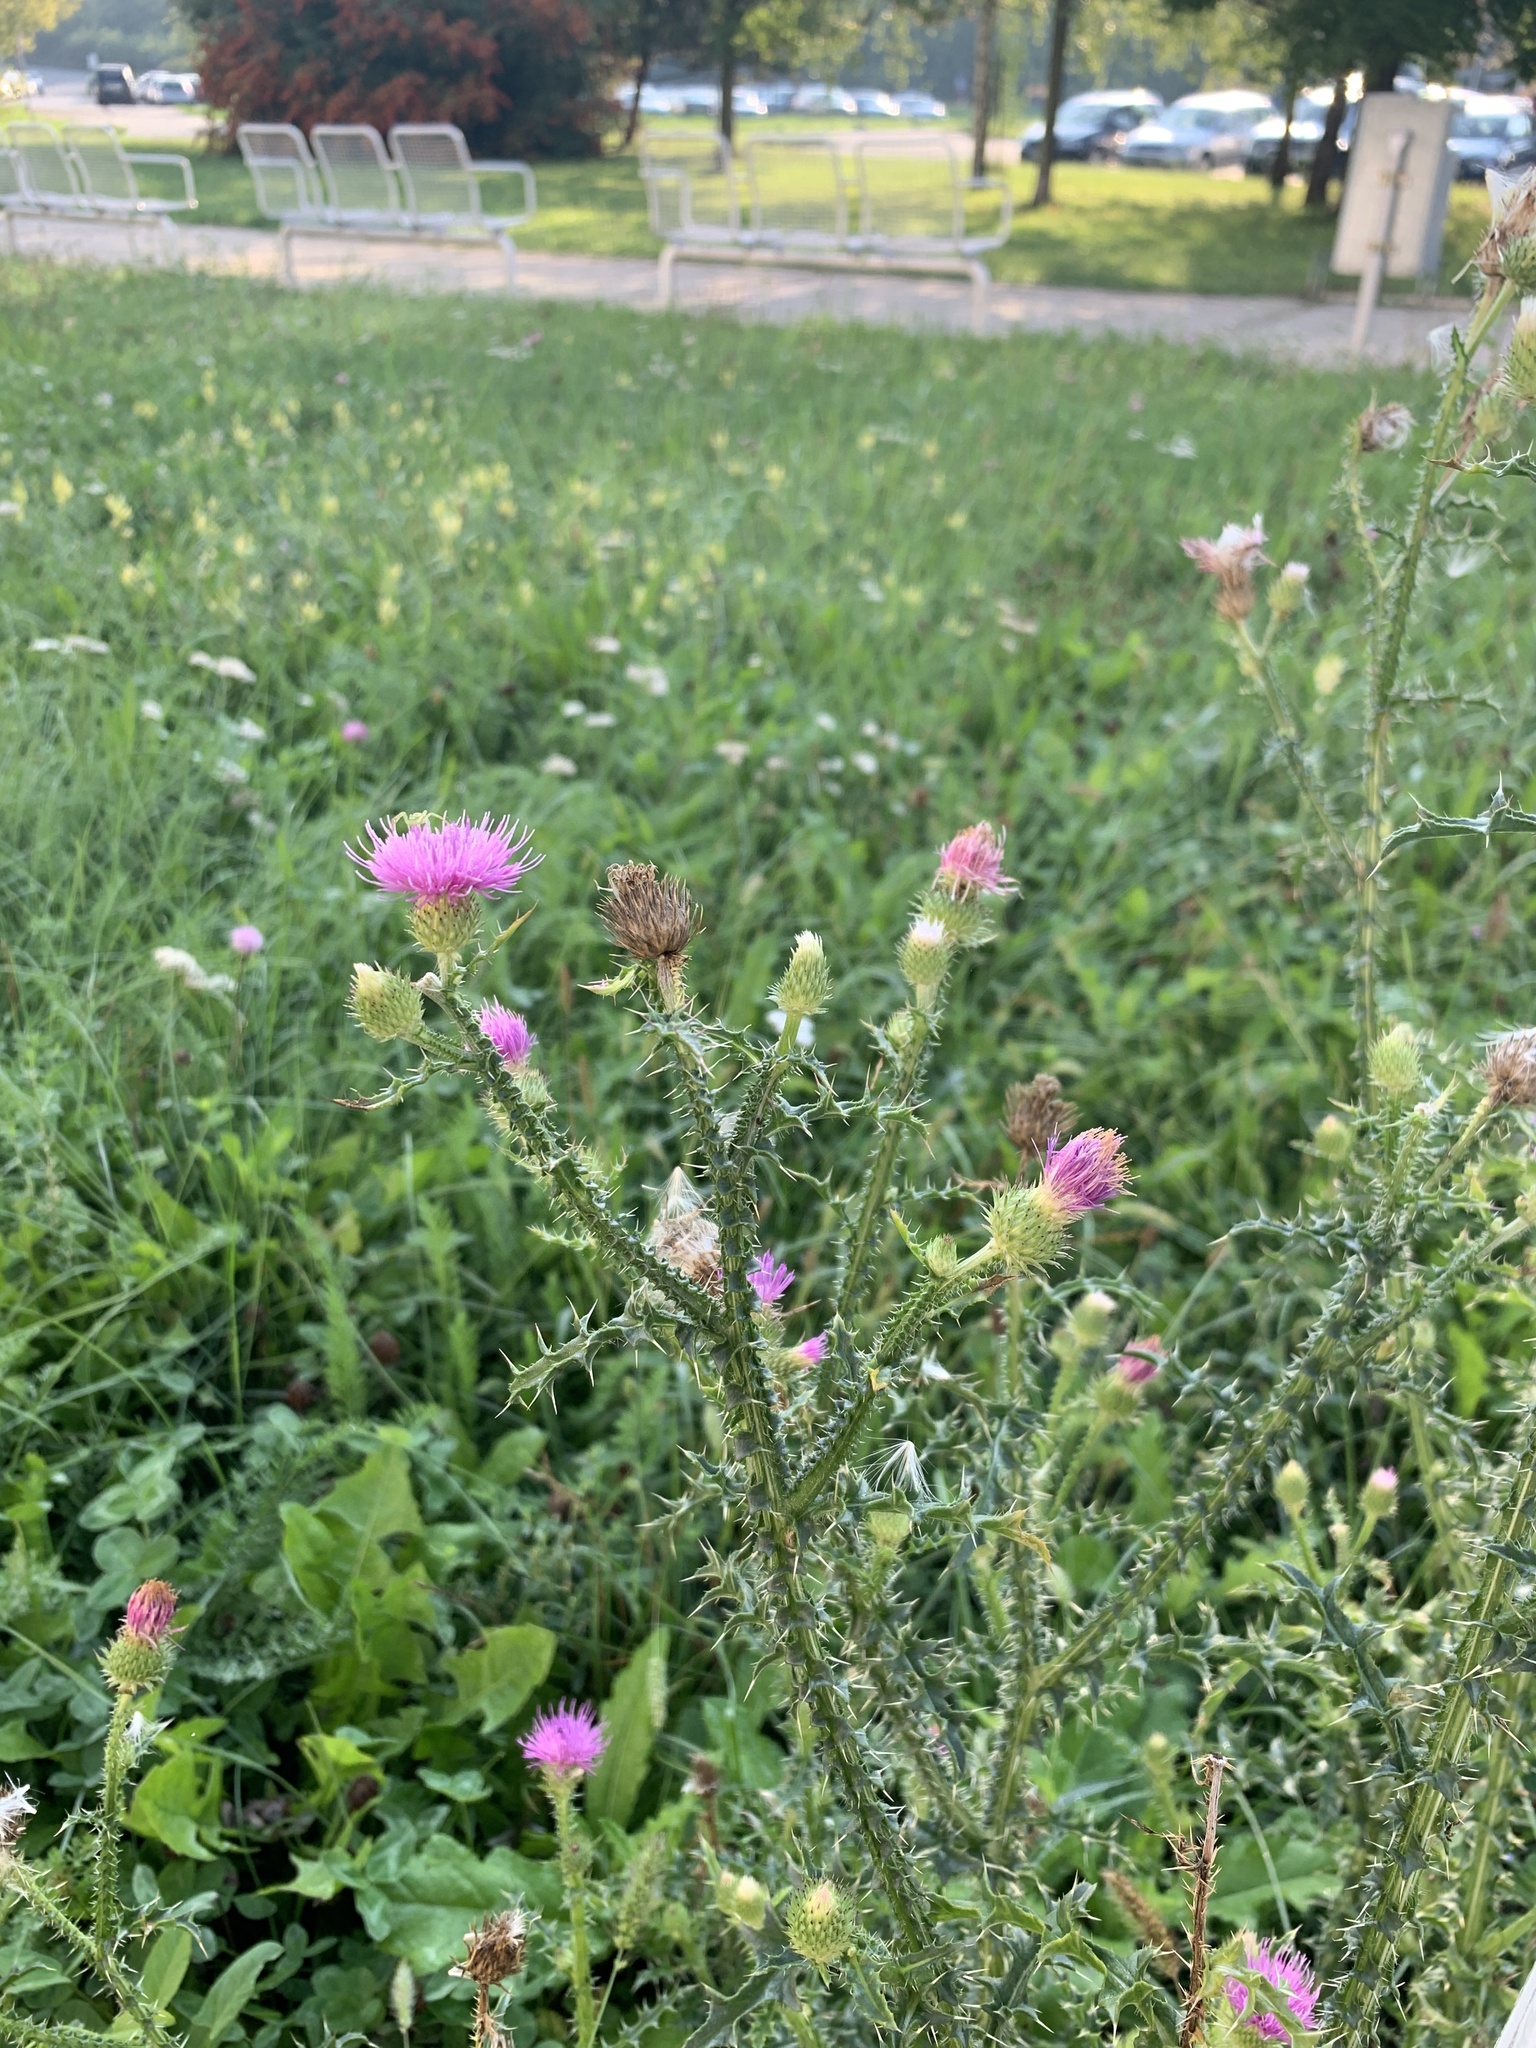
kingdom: Plantae
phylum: Tracheophyta
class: Magnoliopsida
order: Asterales
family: Asteraceae
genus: Carduus
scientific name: Carduus acanthoides
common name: Plumeless thistle
